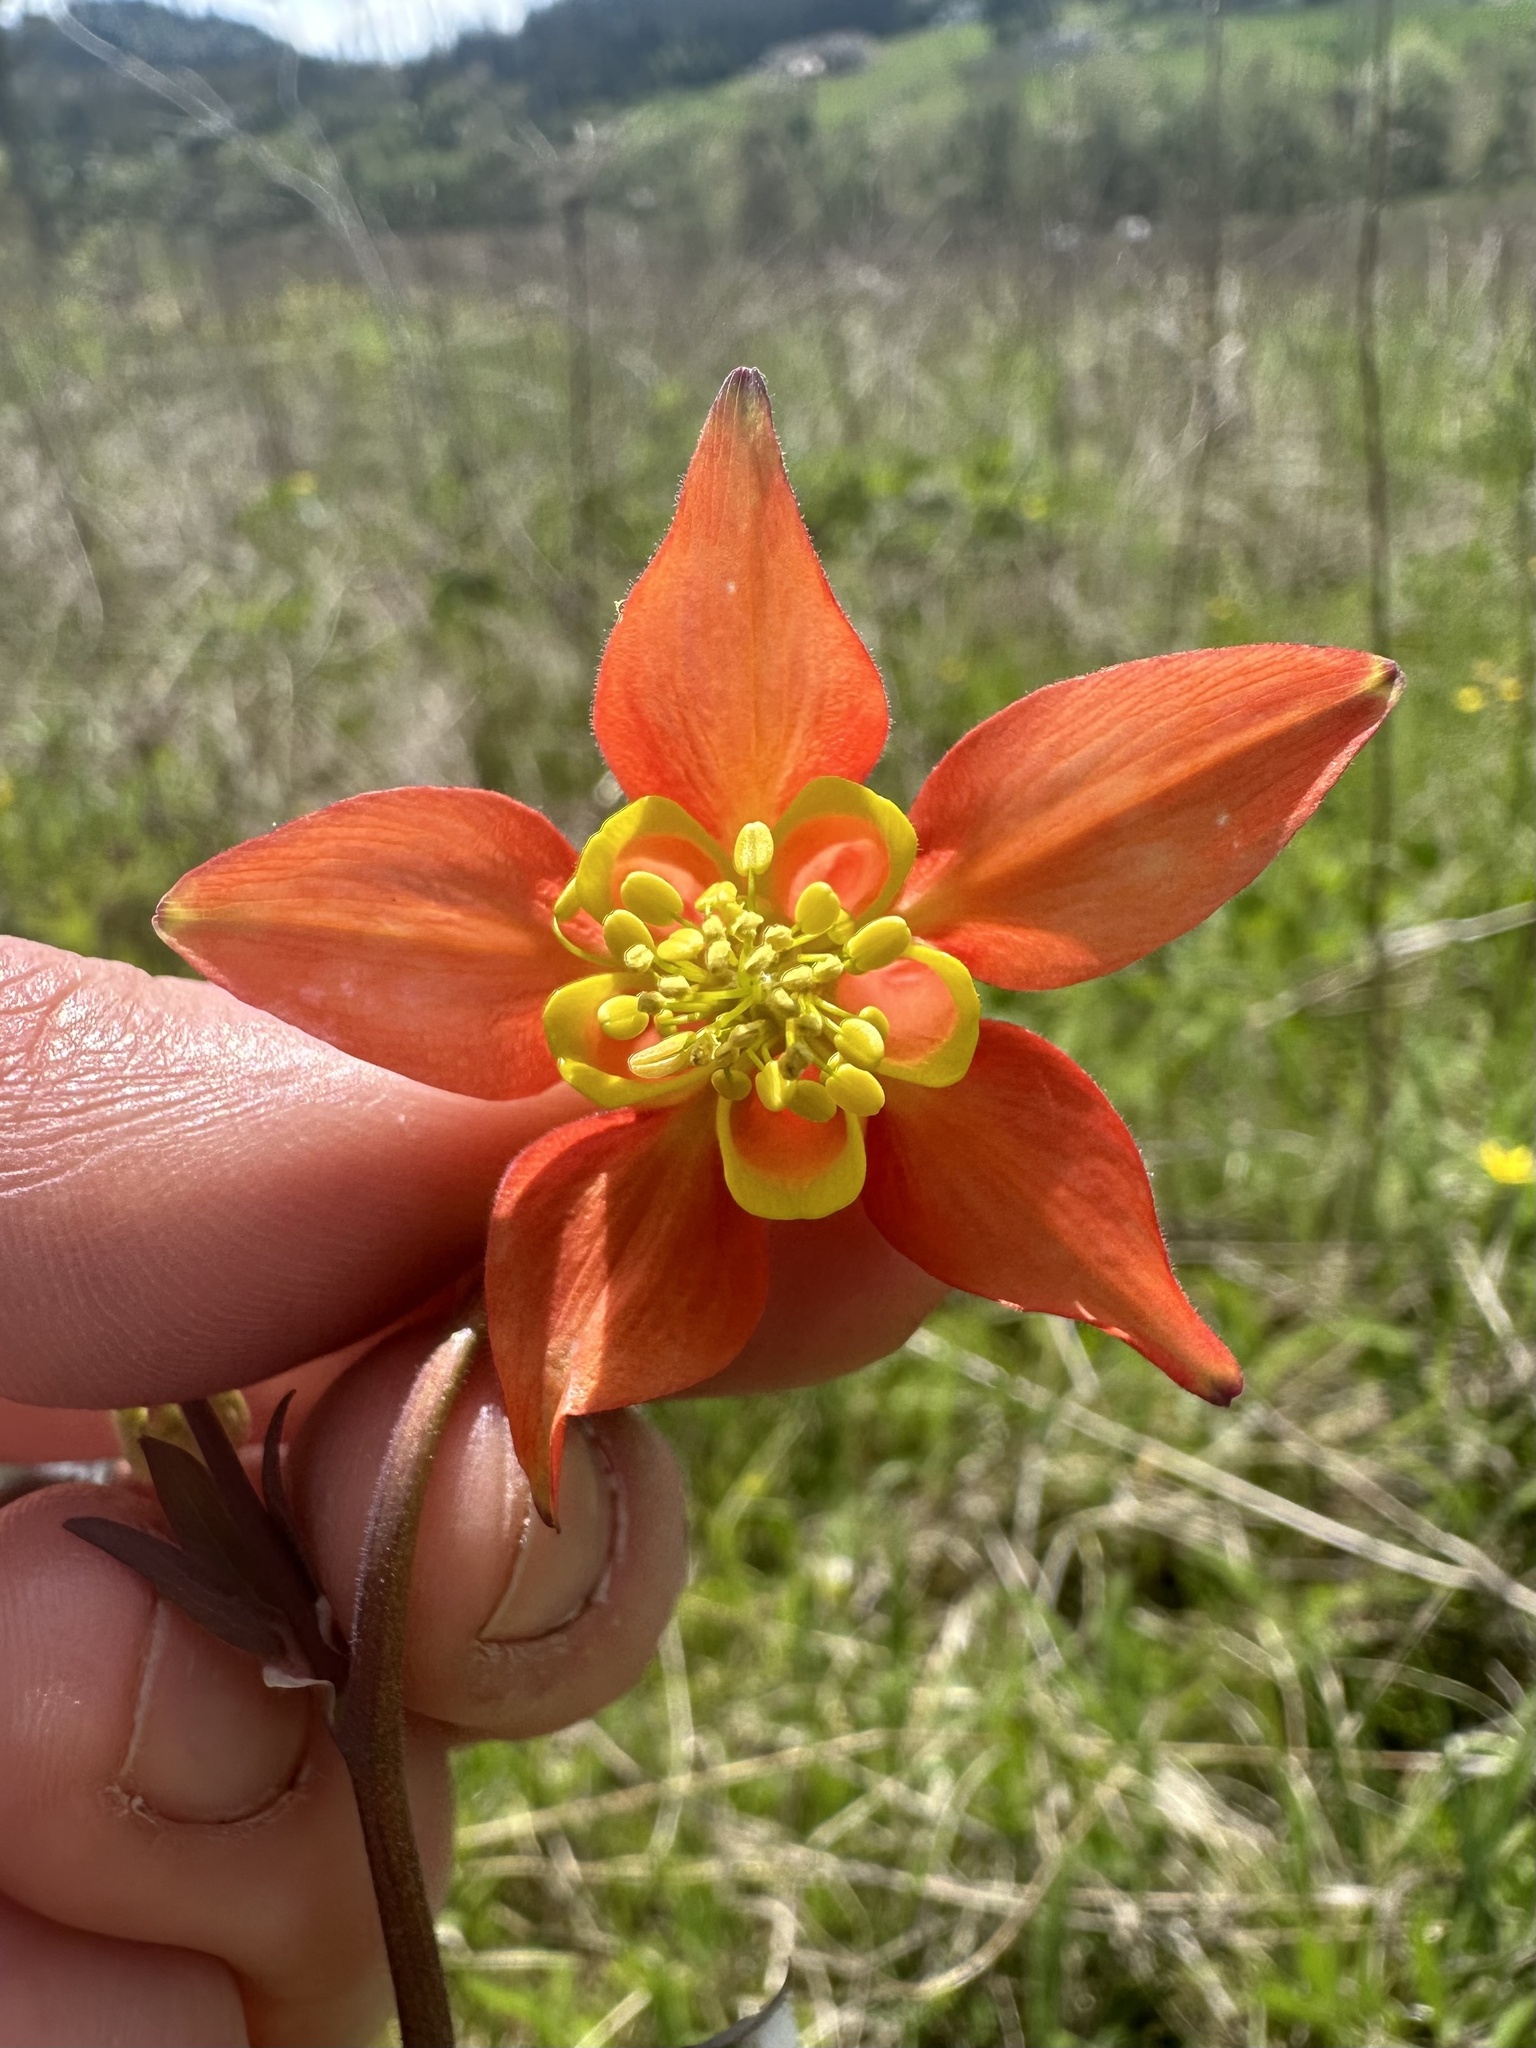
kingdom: Plantae
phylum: Tracheophyta
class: Magnoliopsida
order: Ranunculales
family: Ranunculaceae
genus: Aquilegia
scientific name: Aquilegia formosa
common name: Sitka columbine
